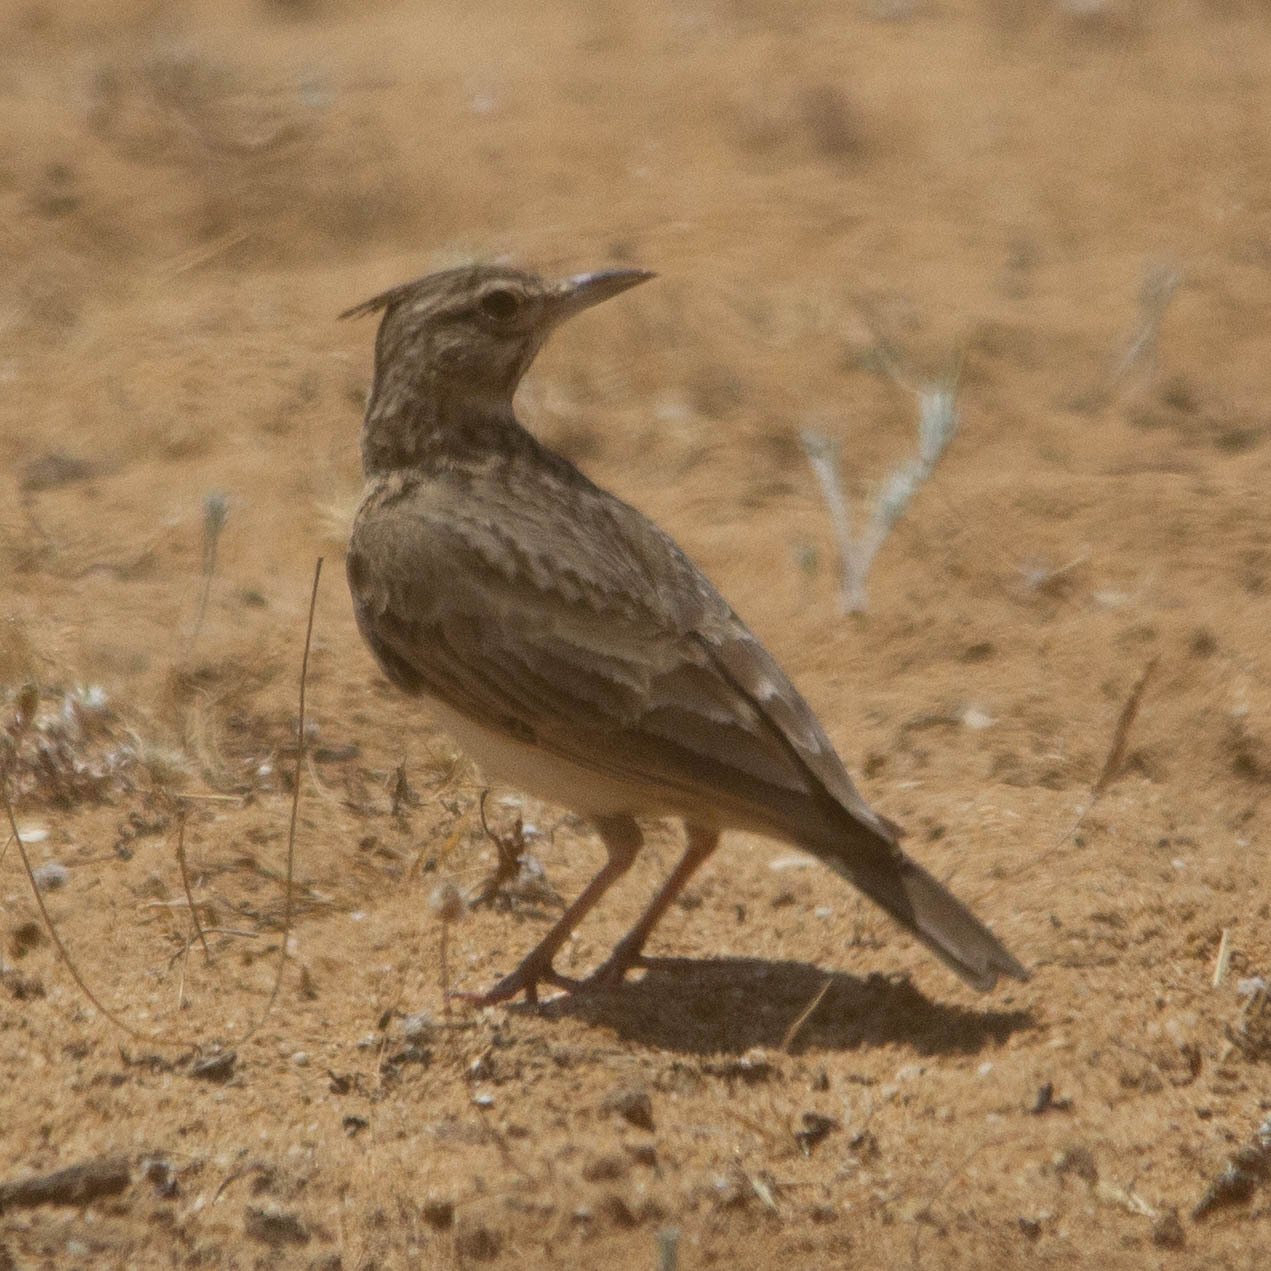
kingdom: Animalia
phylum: Chordata
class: Aves
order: Passeriformes
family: Alaudidae
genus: Galerida
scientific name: Galerida cristata
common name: Crested lark
